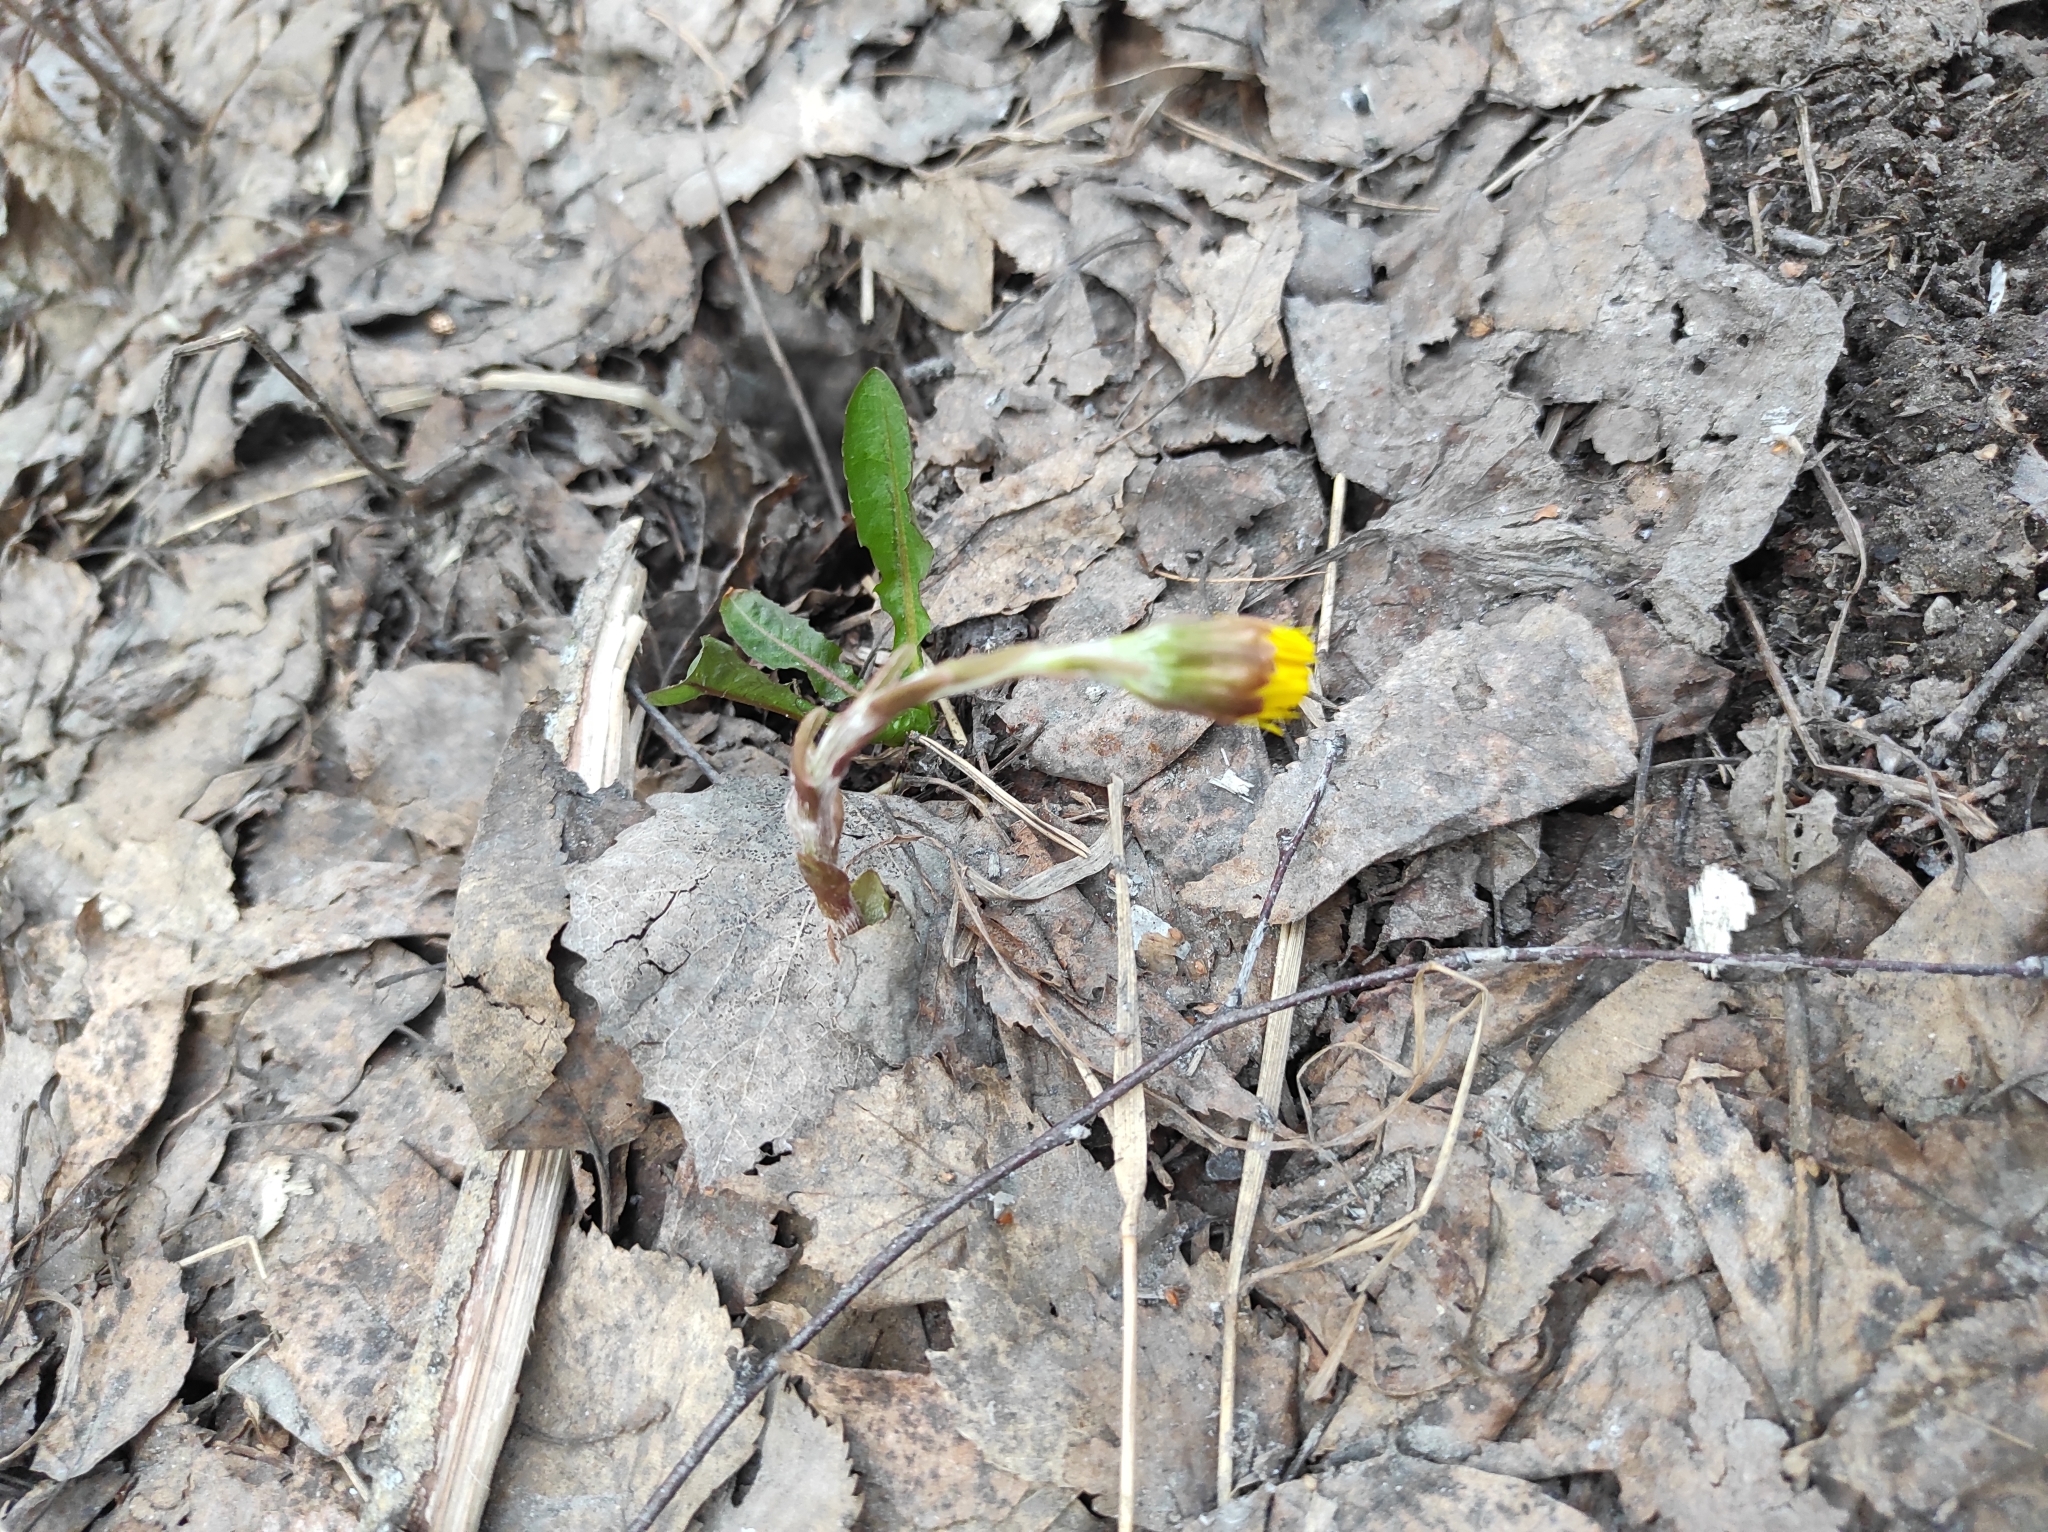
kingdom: Plantae
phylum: Tracheophyta
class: Magnoliopsida
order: Asterales
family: Asteraceae
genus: Taraxacum
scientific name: Taraxacum officinale
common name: Common dandelion
